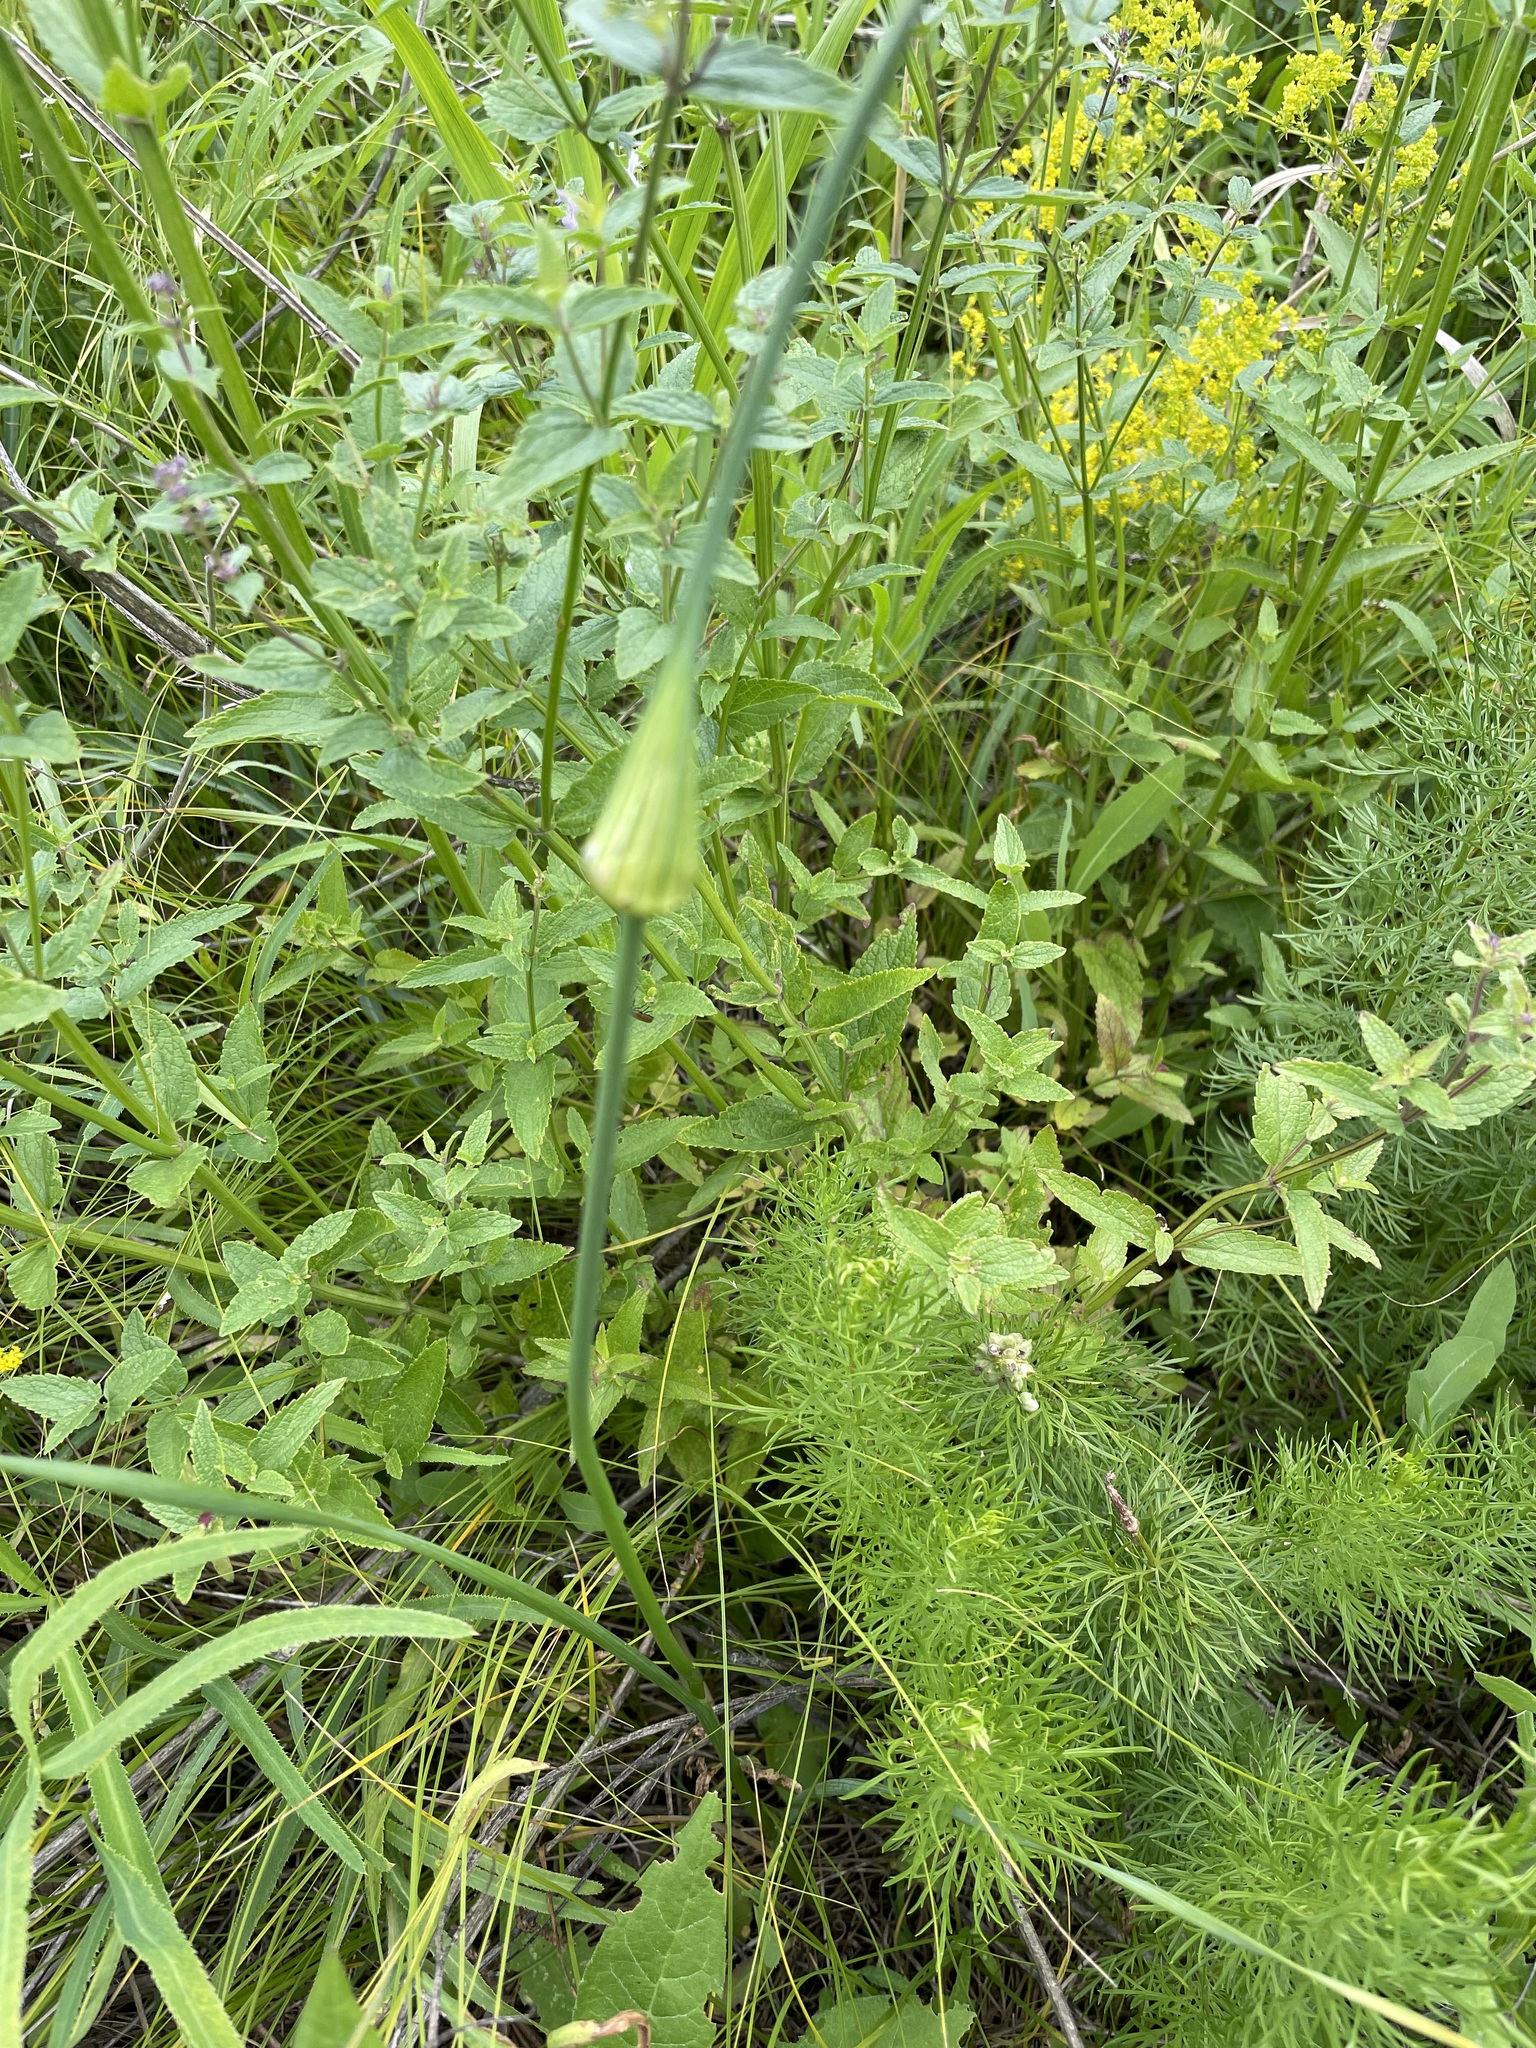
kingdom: Plantae
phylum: Tracheophyta
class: Liliopsida
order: Asparagales
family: Amaryllidaceae
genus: Allium
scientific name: Allium oleraceum
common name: Field garlic
